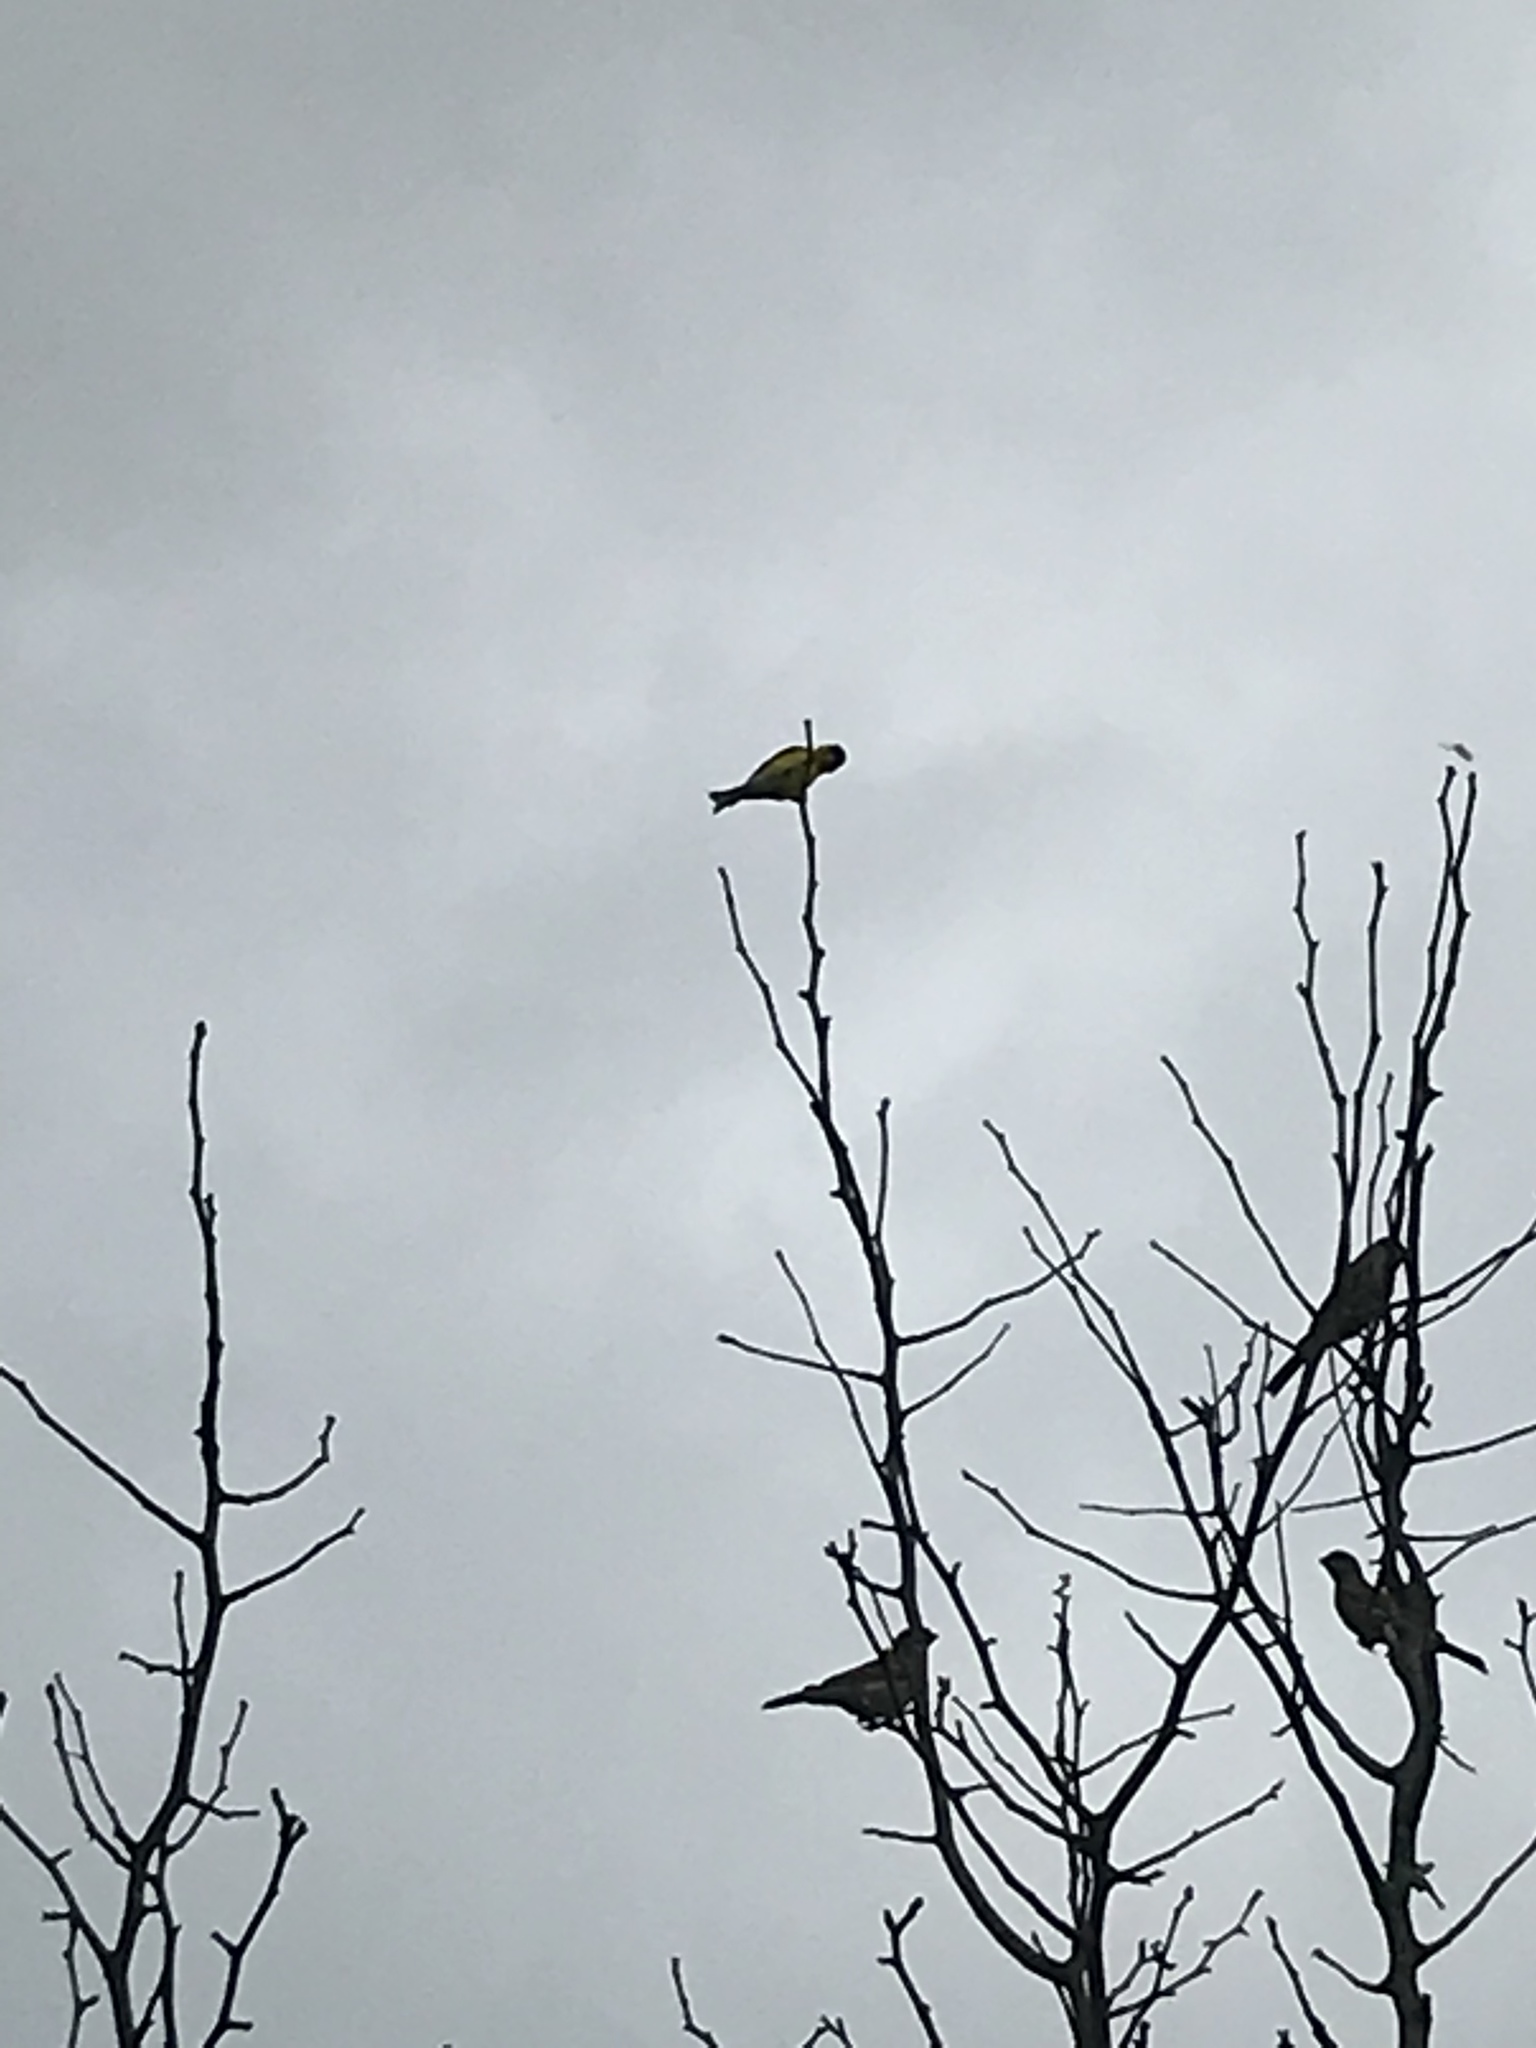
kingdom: Animalia
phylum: Chordata
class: Aves
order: Passeriformes
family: Fringillidae
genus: Spinus
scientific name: Spinus tristis
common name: American goldfinch
